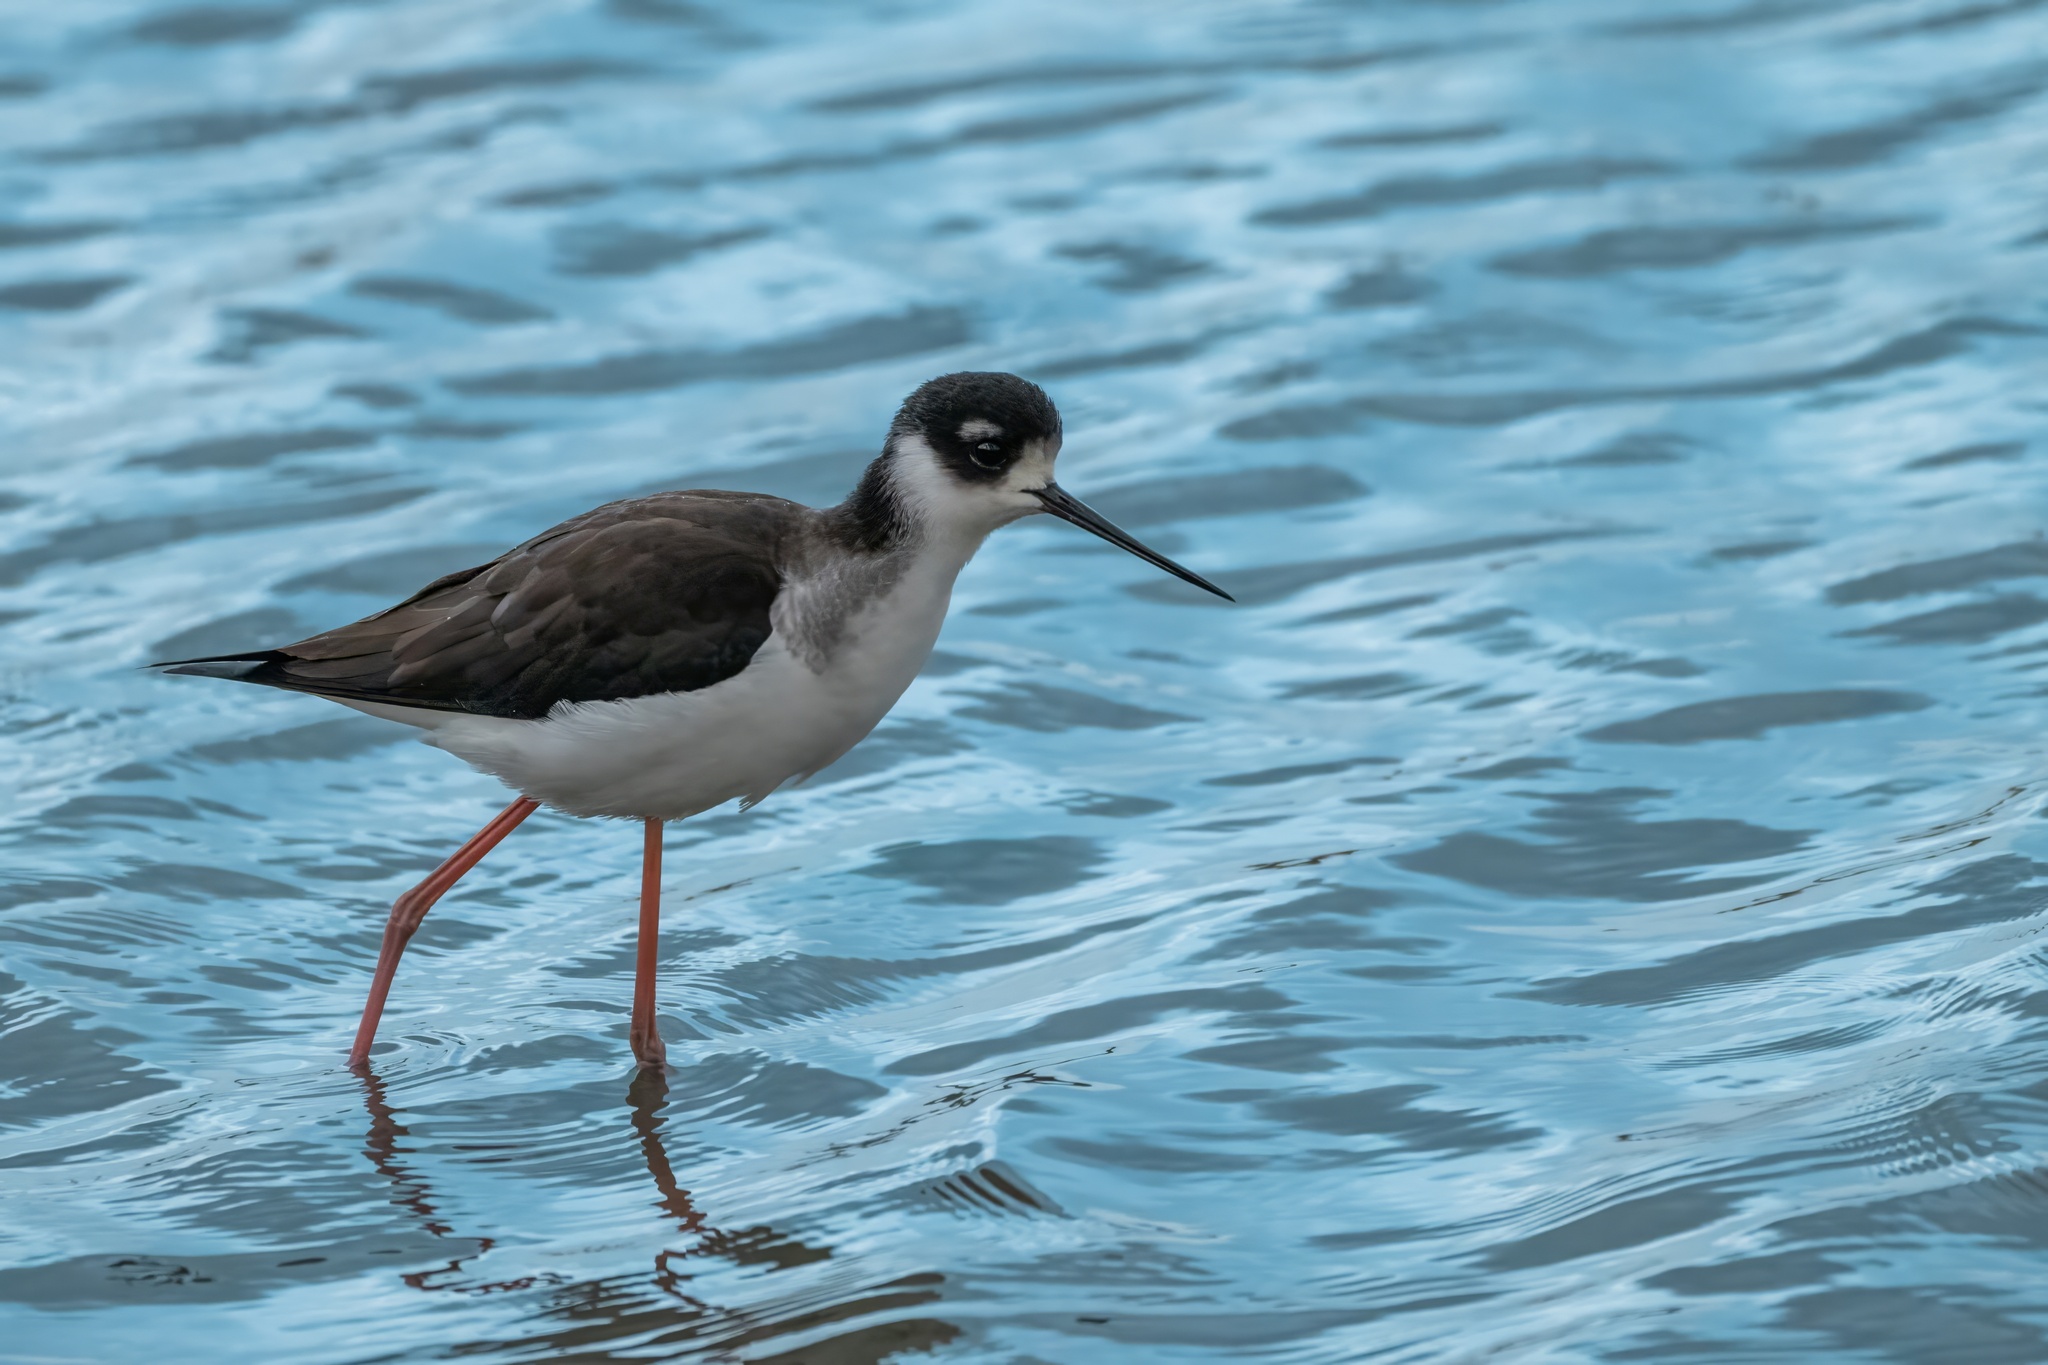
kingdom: Animalia
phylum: Chordata
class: Aves
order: Charadriiformes
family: Recurvirostridae
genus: Himantopus
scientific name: Himantopus mexicanus
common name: Black-necked stilt
